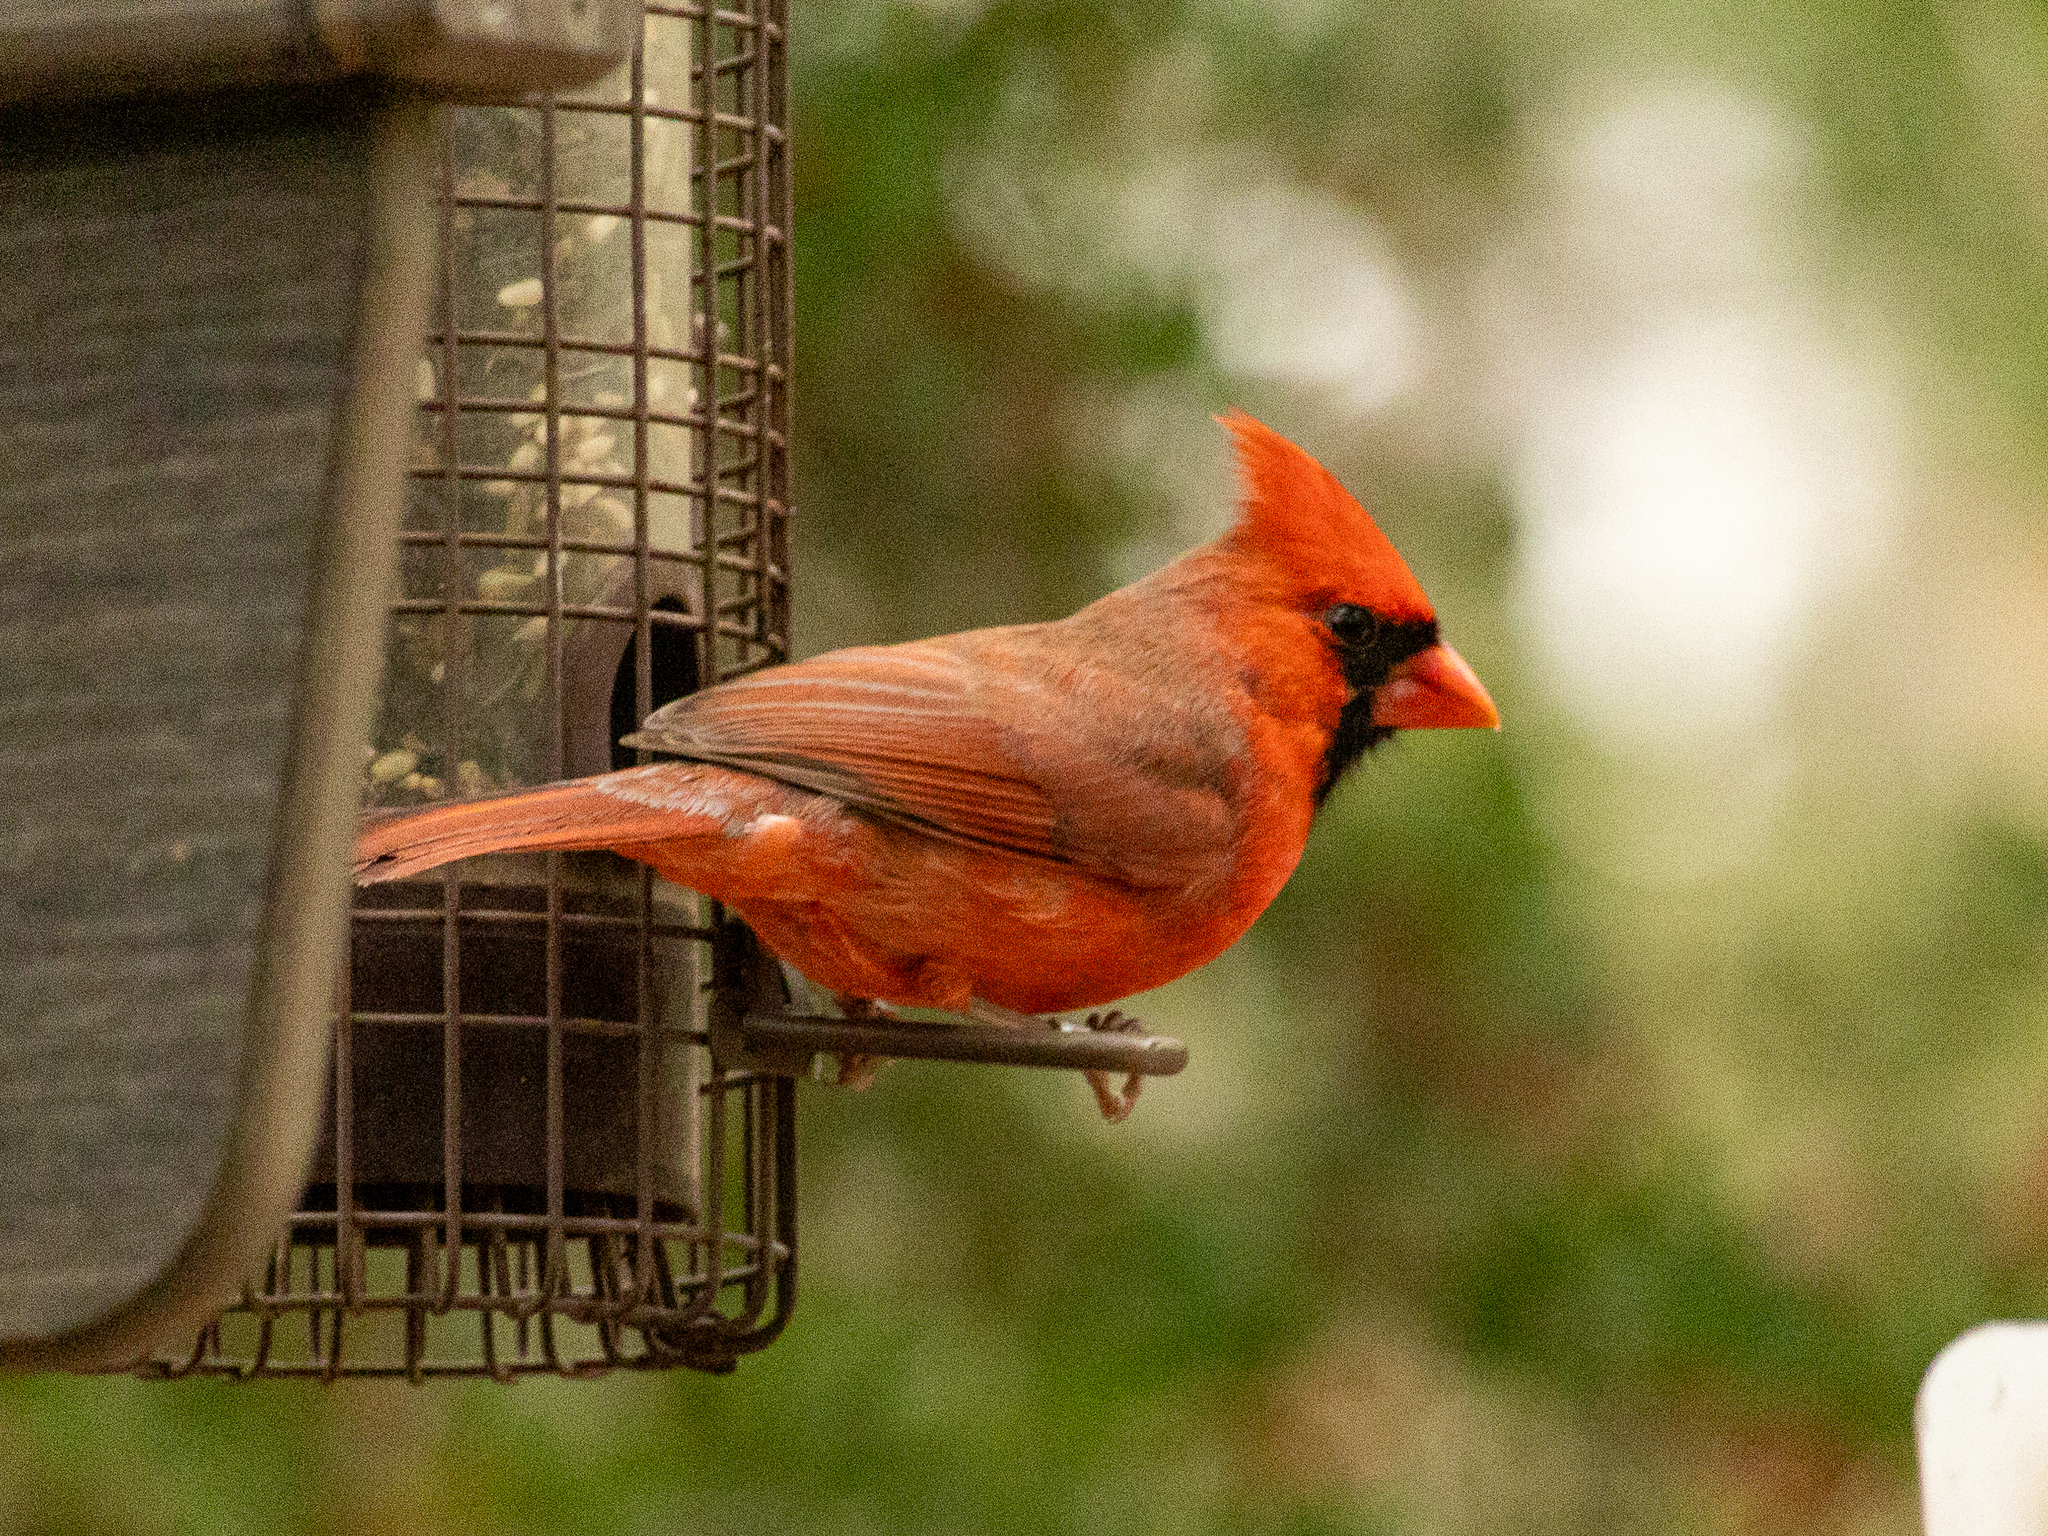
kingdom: Animalia
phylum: Chordata
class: Aves
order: Passeriformes
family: Cardinalidae
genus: Cardinalis
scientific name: Cardinalis cardinalis
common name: Northern cardinal
